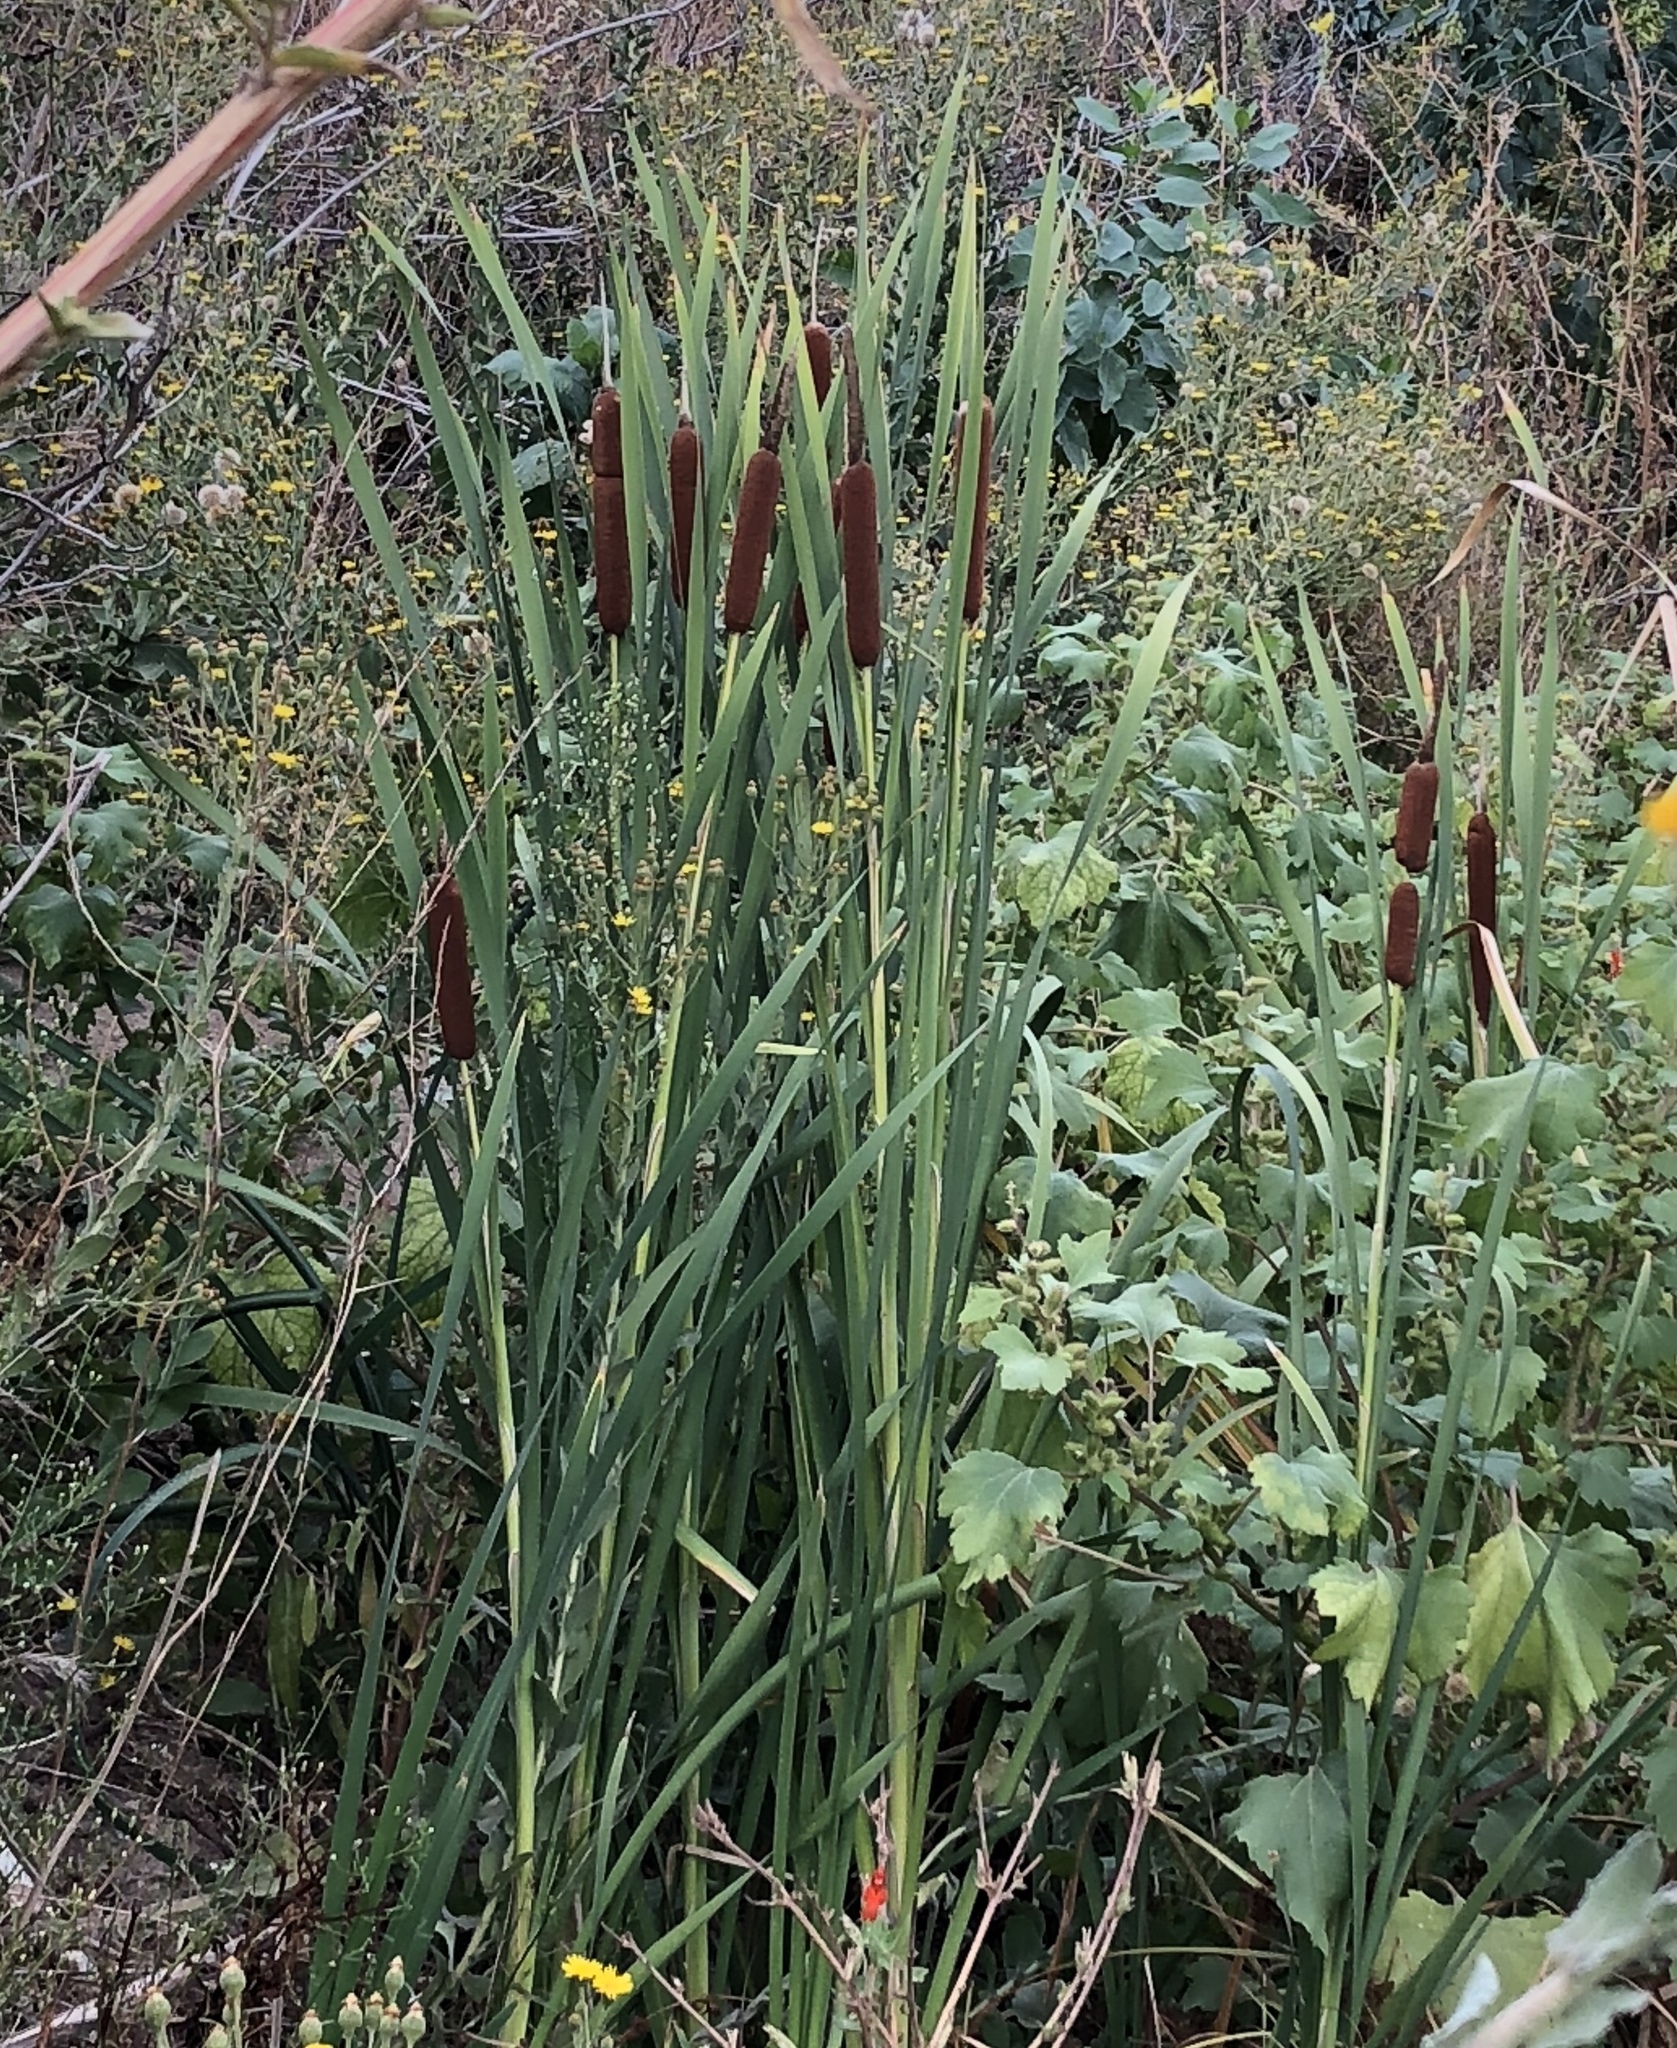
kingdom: Plantae
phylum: Tracheophyta
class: Liliopsida
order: Poales
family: Typhaceae
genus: Typha
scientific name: Typha latifolia
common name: Broadleaf cattail
